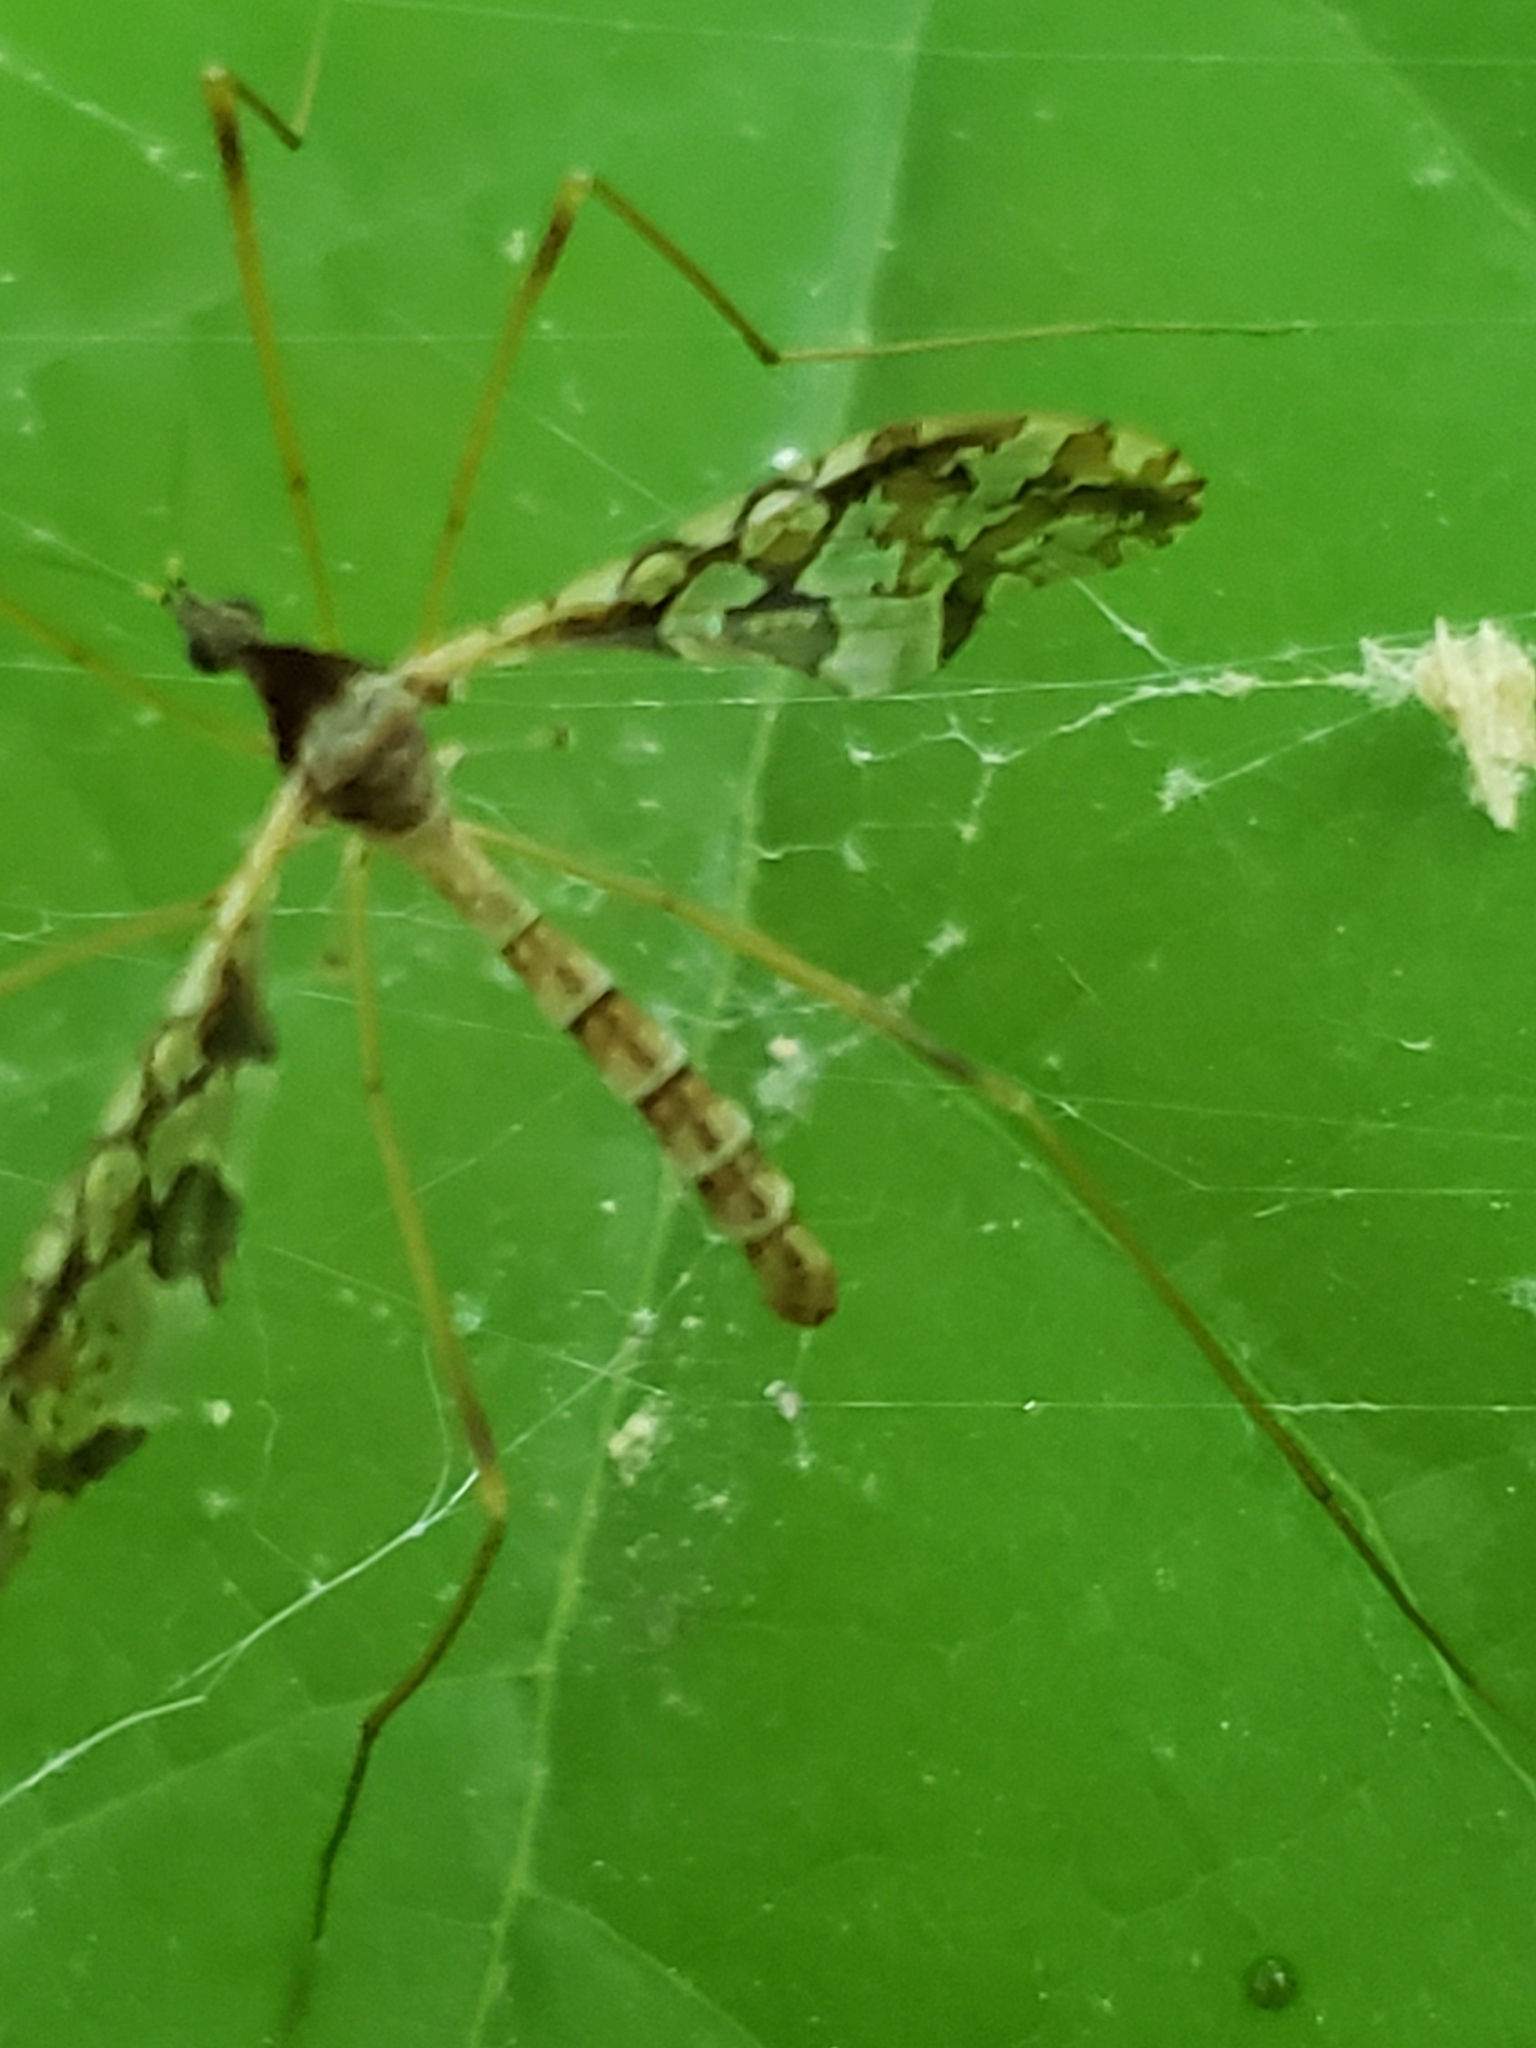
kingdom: Animalia
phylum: Arthropoda
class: Insecta
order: Diptera
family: Limoniidae
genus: Epiphragma
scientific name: Epiphragma solatrix
